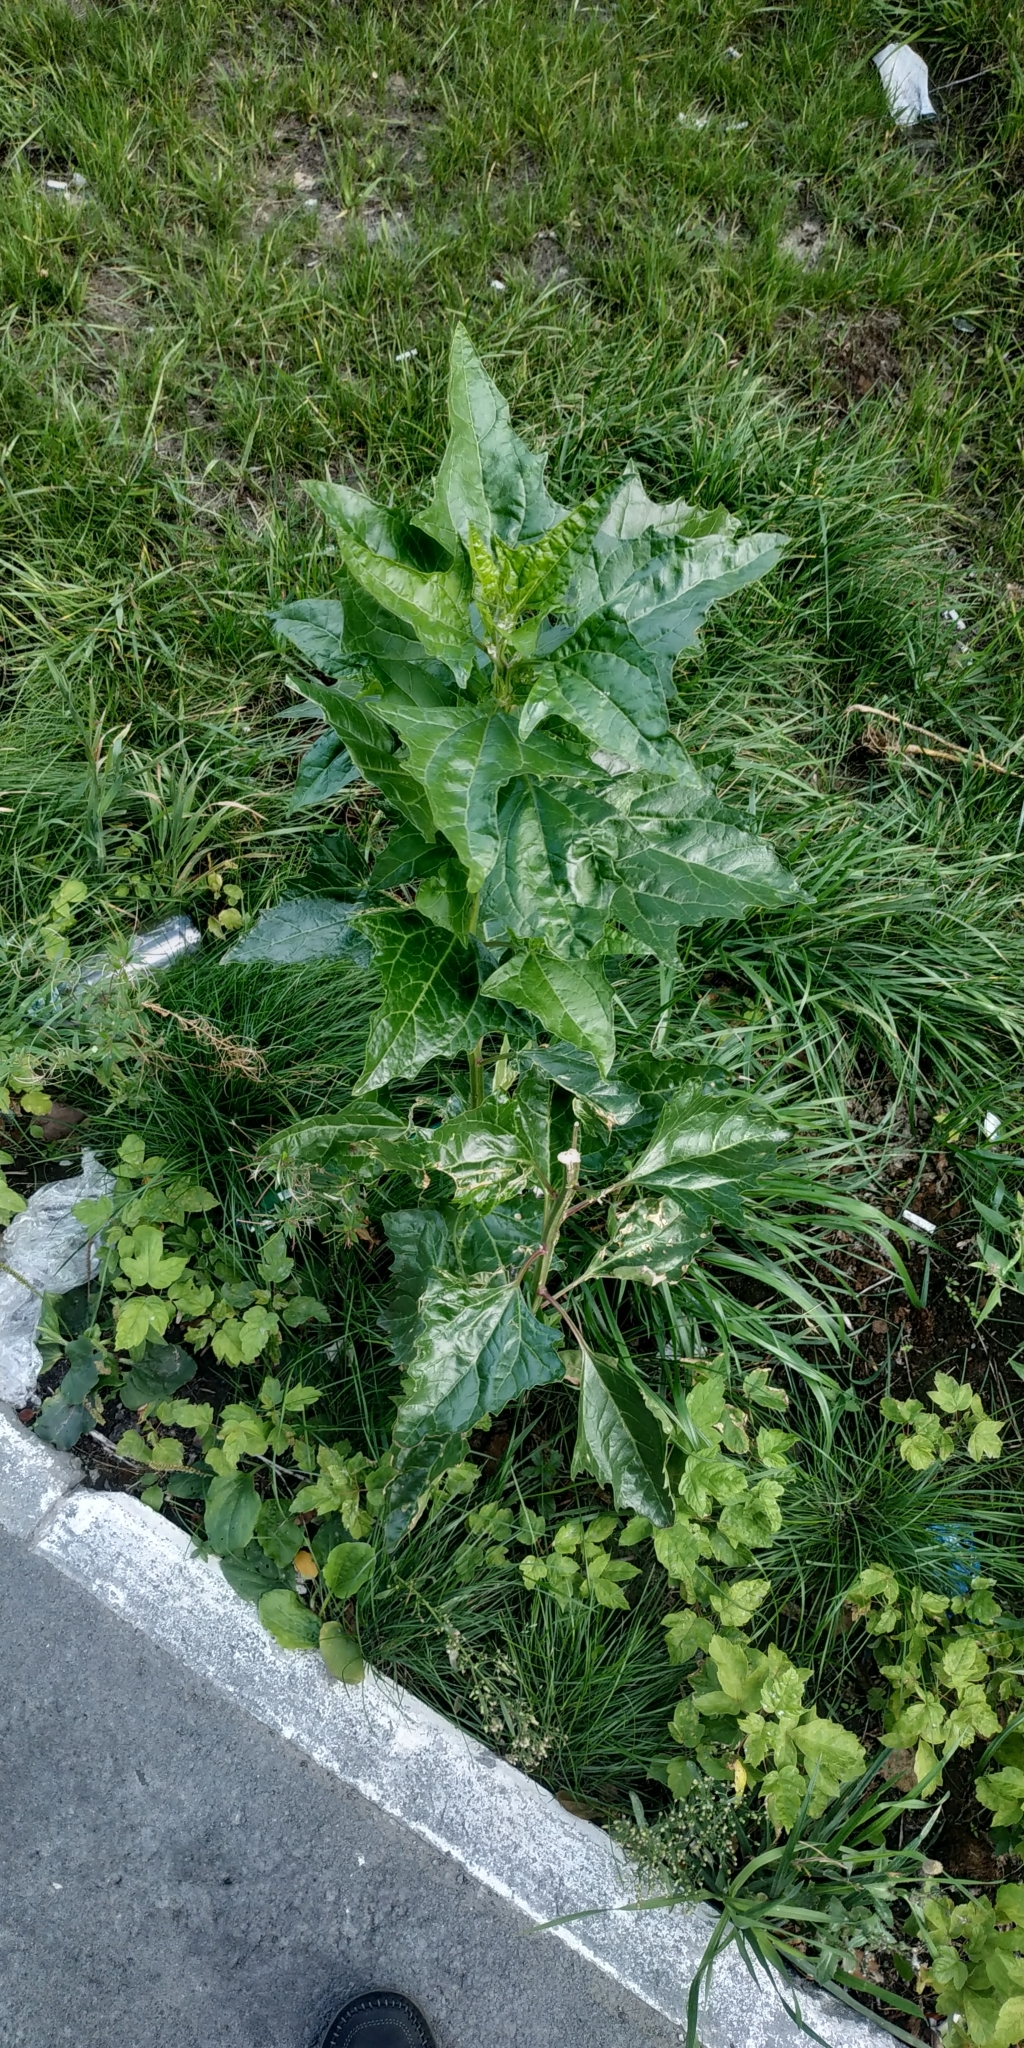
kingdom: Plantae
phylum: Tracheophyta
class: Magnoliopsida
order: Caryophyllales
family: Amaranthaceae
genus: Atriplex
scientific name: Atriplex sagittata
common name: Purple orache
